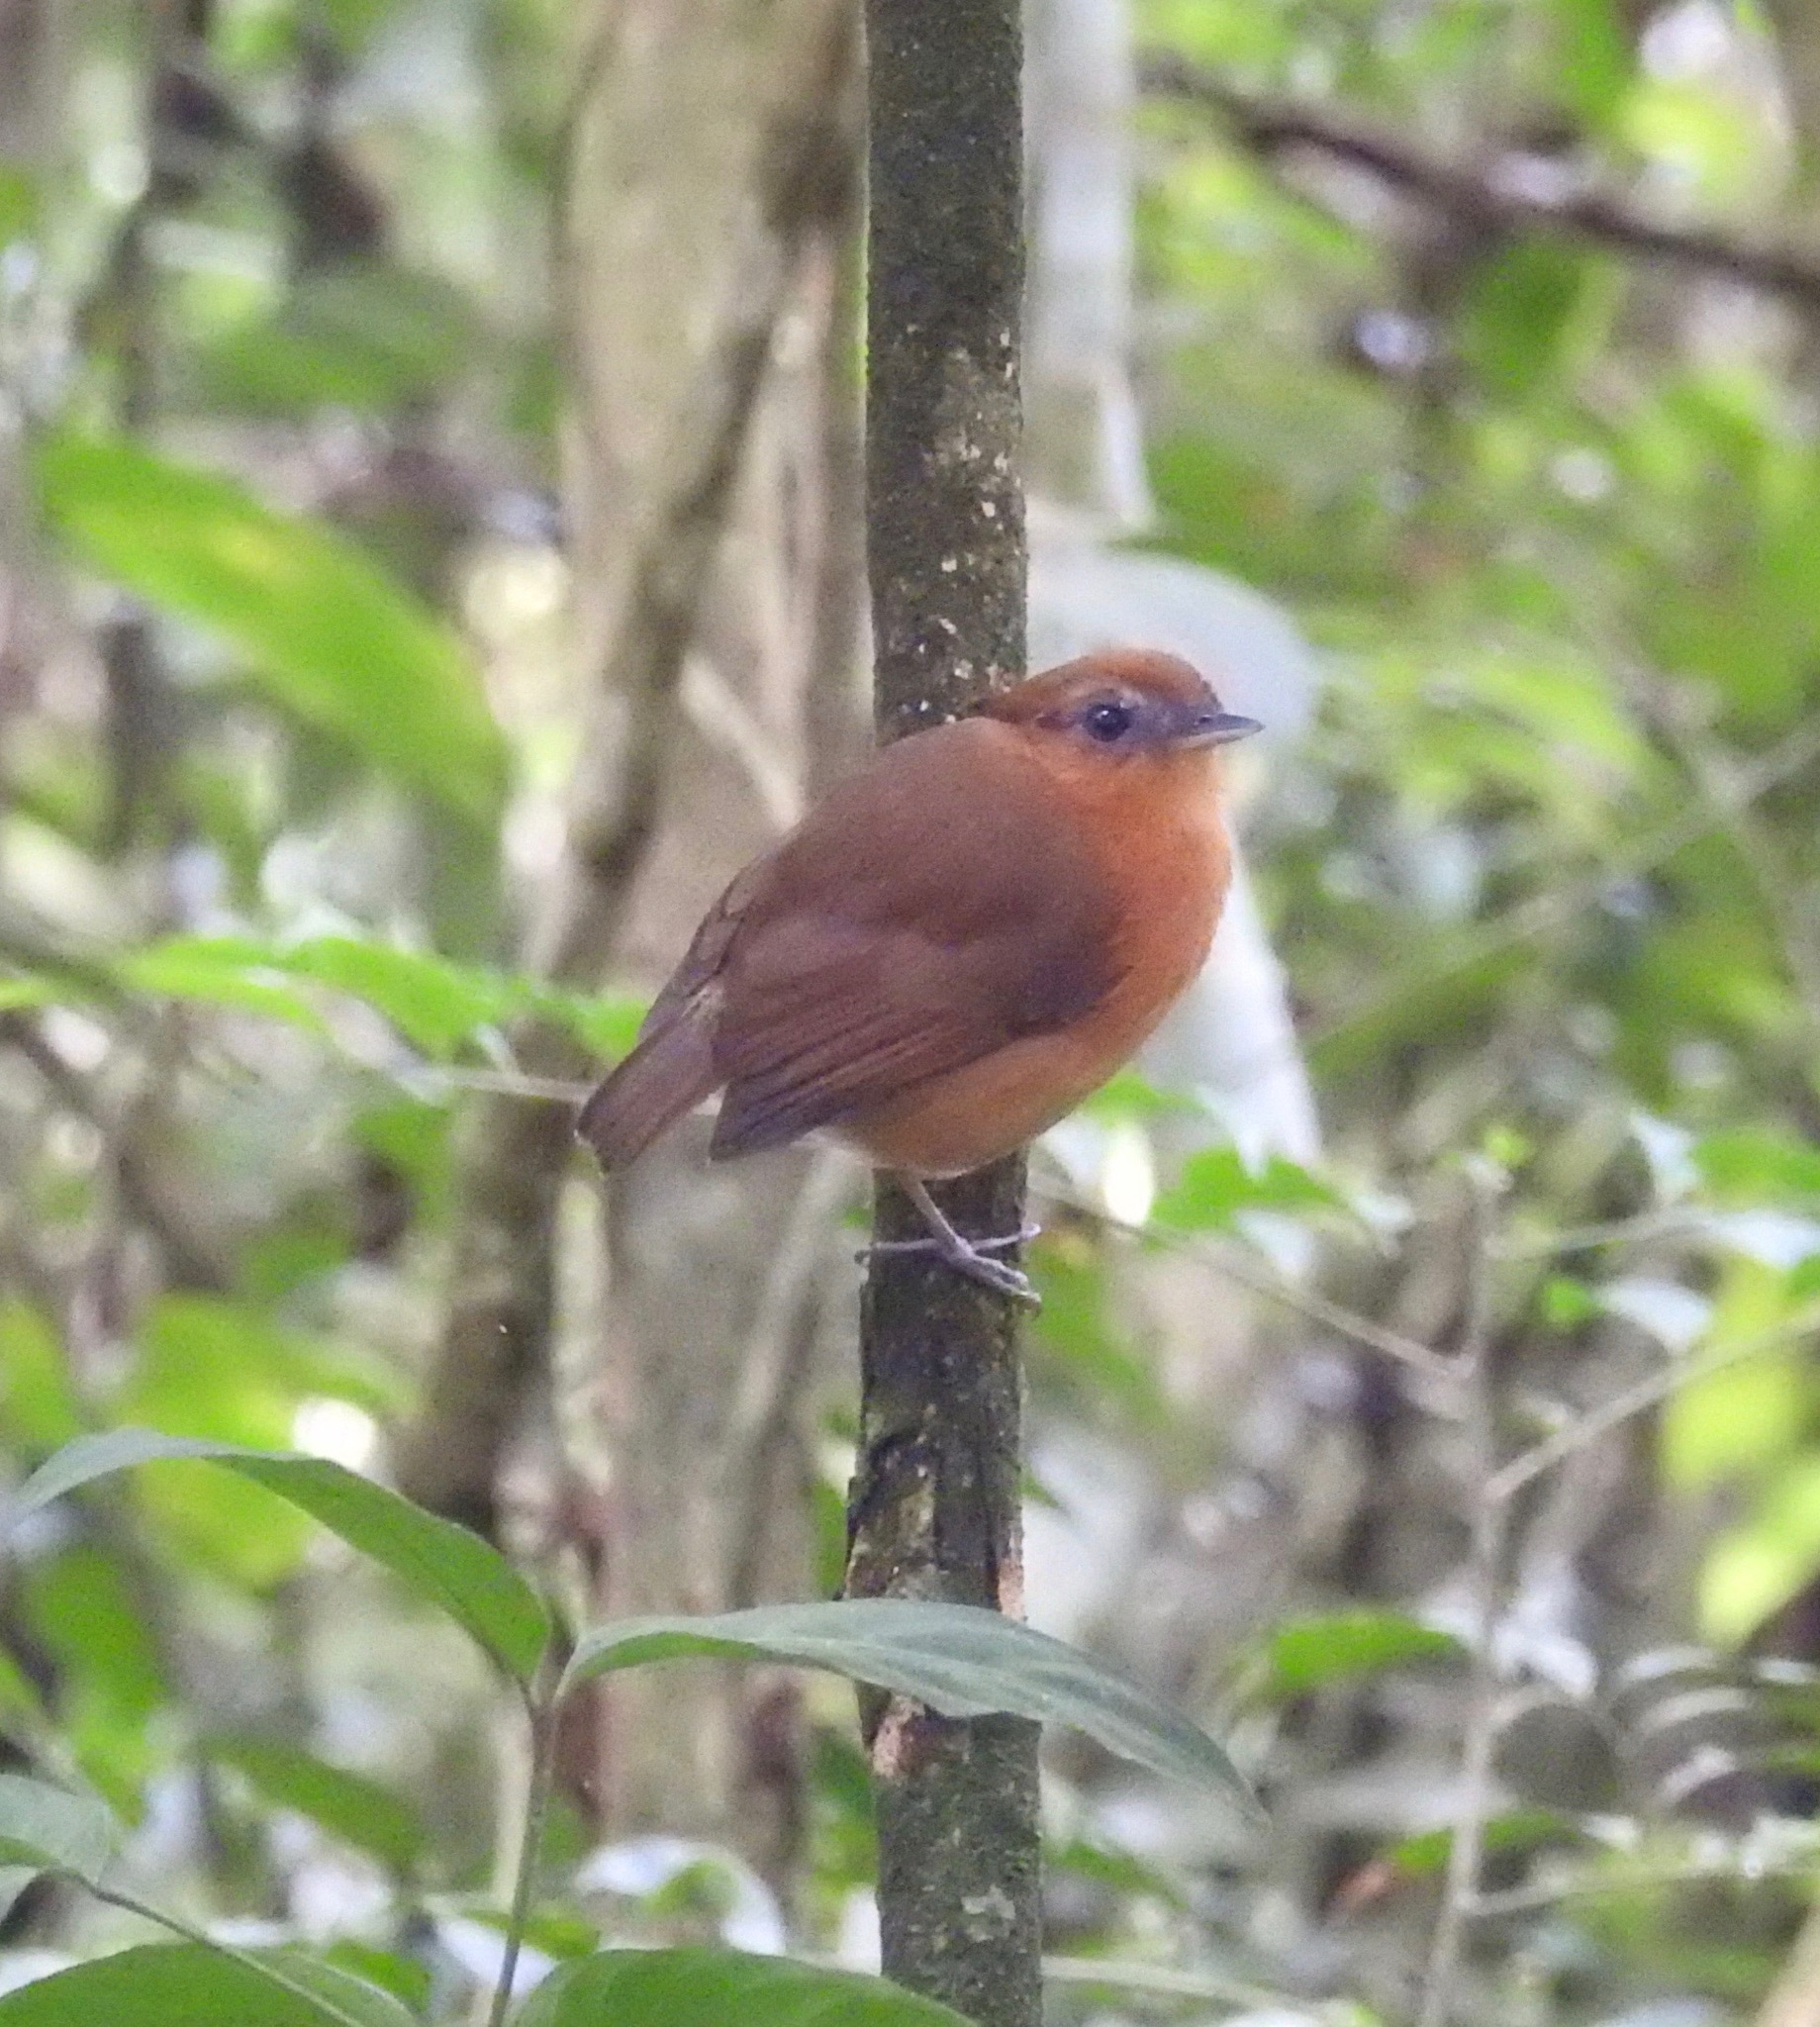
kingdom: Animalia
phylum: Chordata
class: Aves
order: Passeriformes
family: Conopophagidae
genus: Conopophaga
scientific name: Conopophaga cearae
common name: Ceara gnateater
